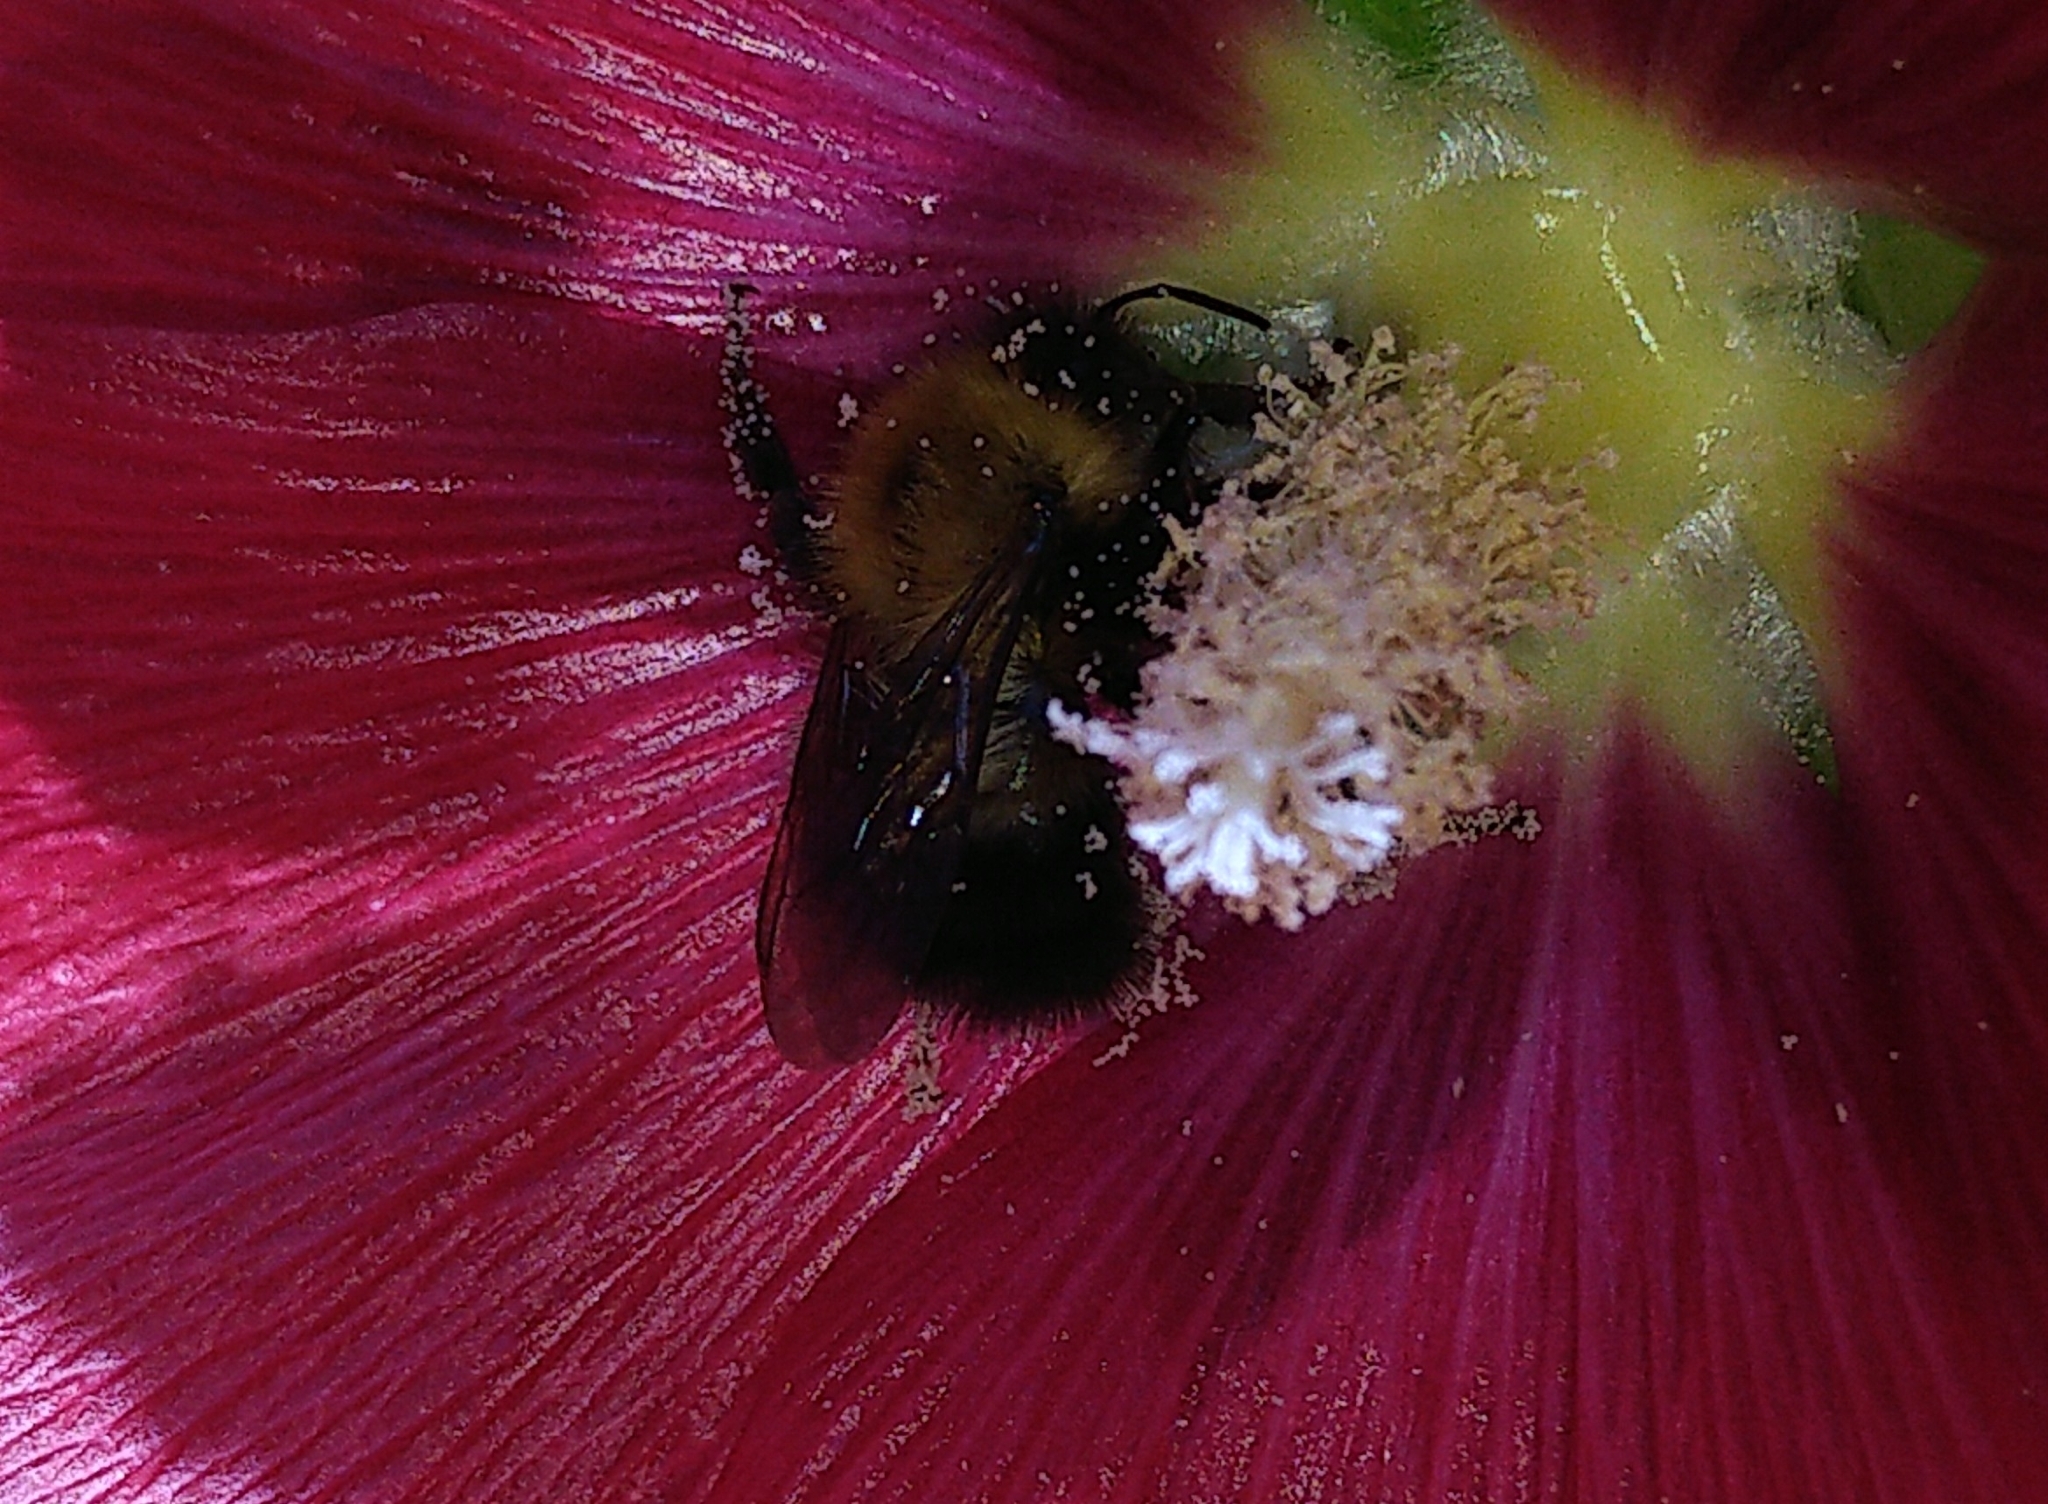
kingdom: Animalia
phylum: Arthropoda
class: Insecta
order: Hymenoptera
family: Apidae
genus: Bombus
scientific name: Bombus perplexus
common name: Confusing bumble bee
